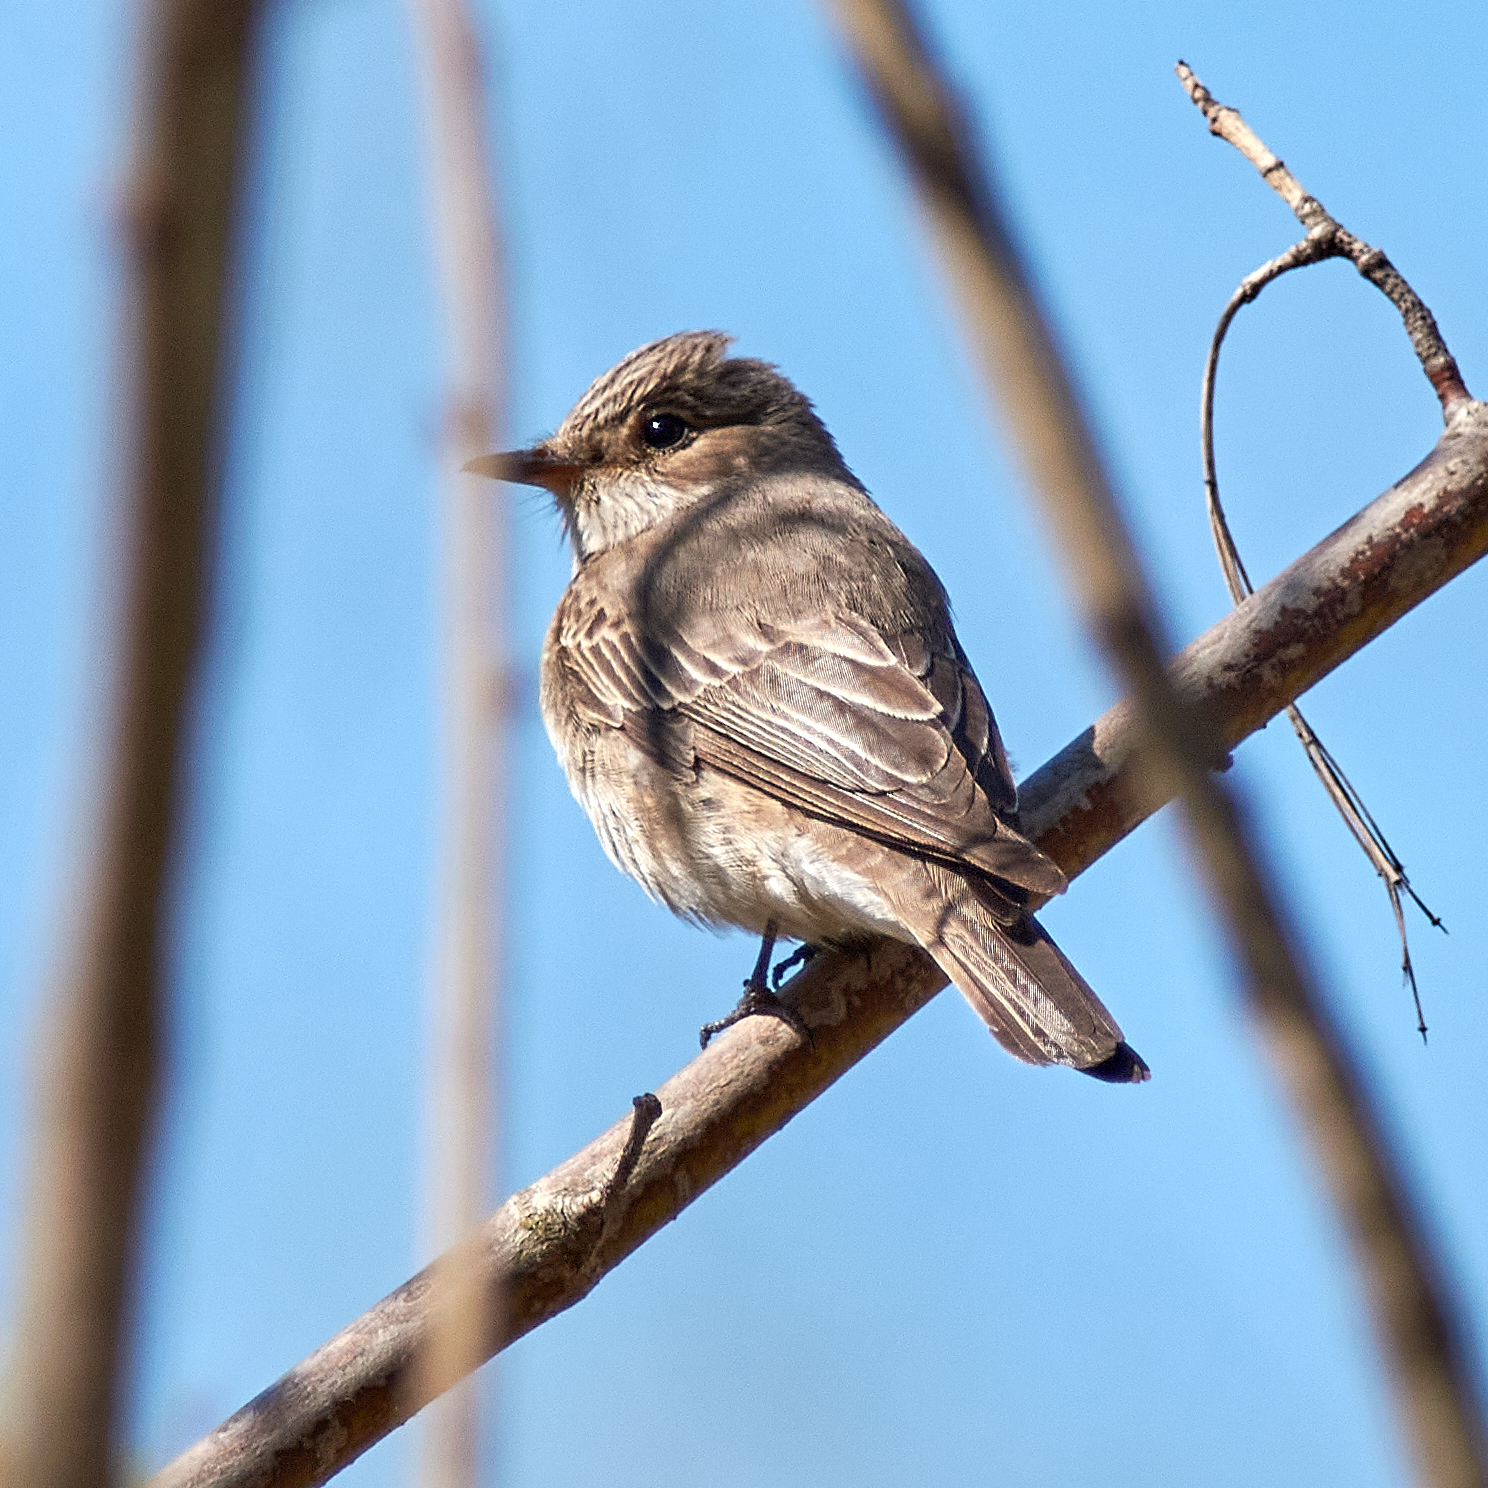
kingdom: Animalia
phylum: Chordata
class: Aves
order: Passeriformes
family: Muscicapidae
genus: Muscicapa
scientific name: Muscicapa striata
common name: Spotted flycatcher
